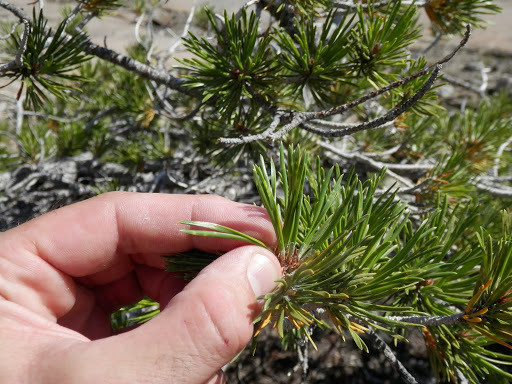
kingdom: Plantae
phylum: Tracheophyta
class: Pinopsida
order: Pinales
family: Pinaceae
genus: Pinus
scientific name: Pinus contorta
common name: Lodgepole pine
